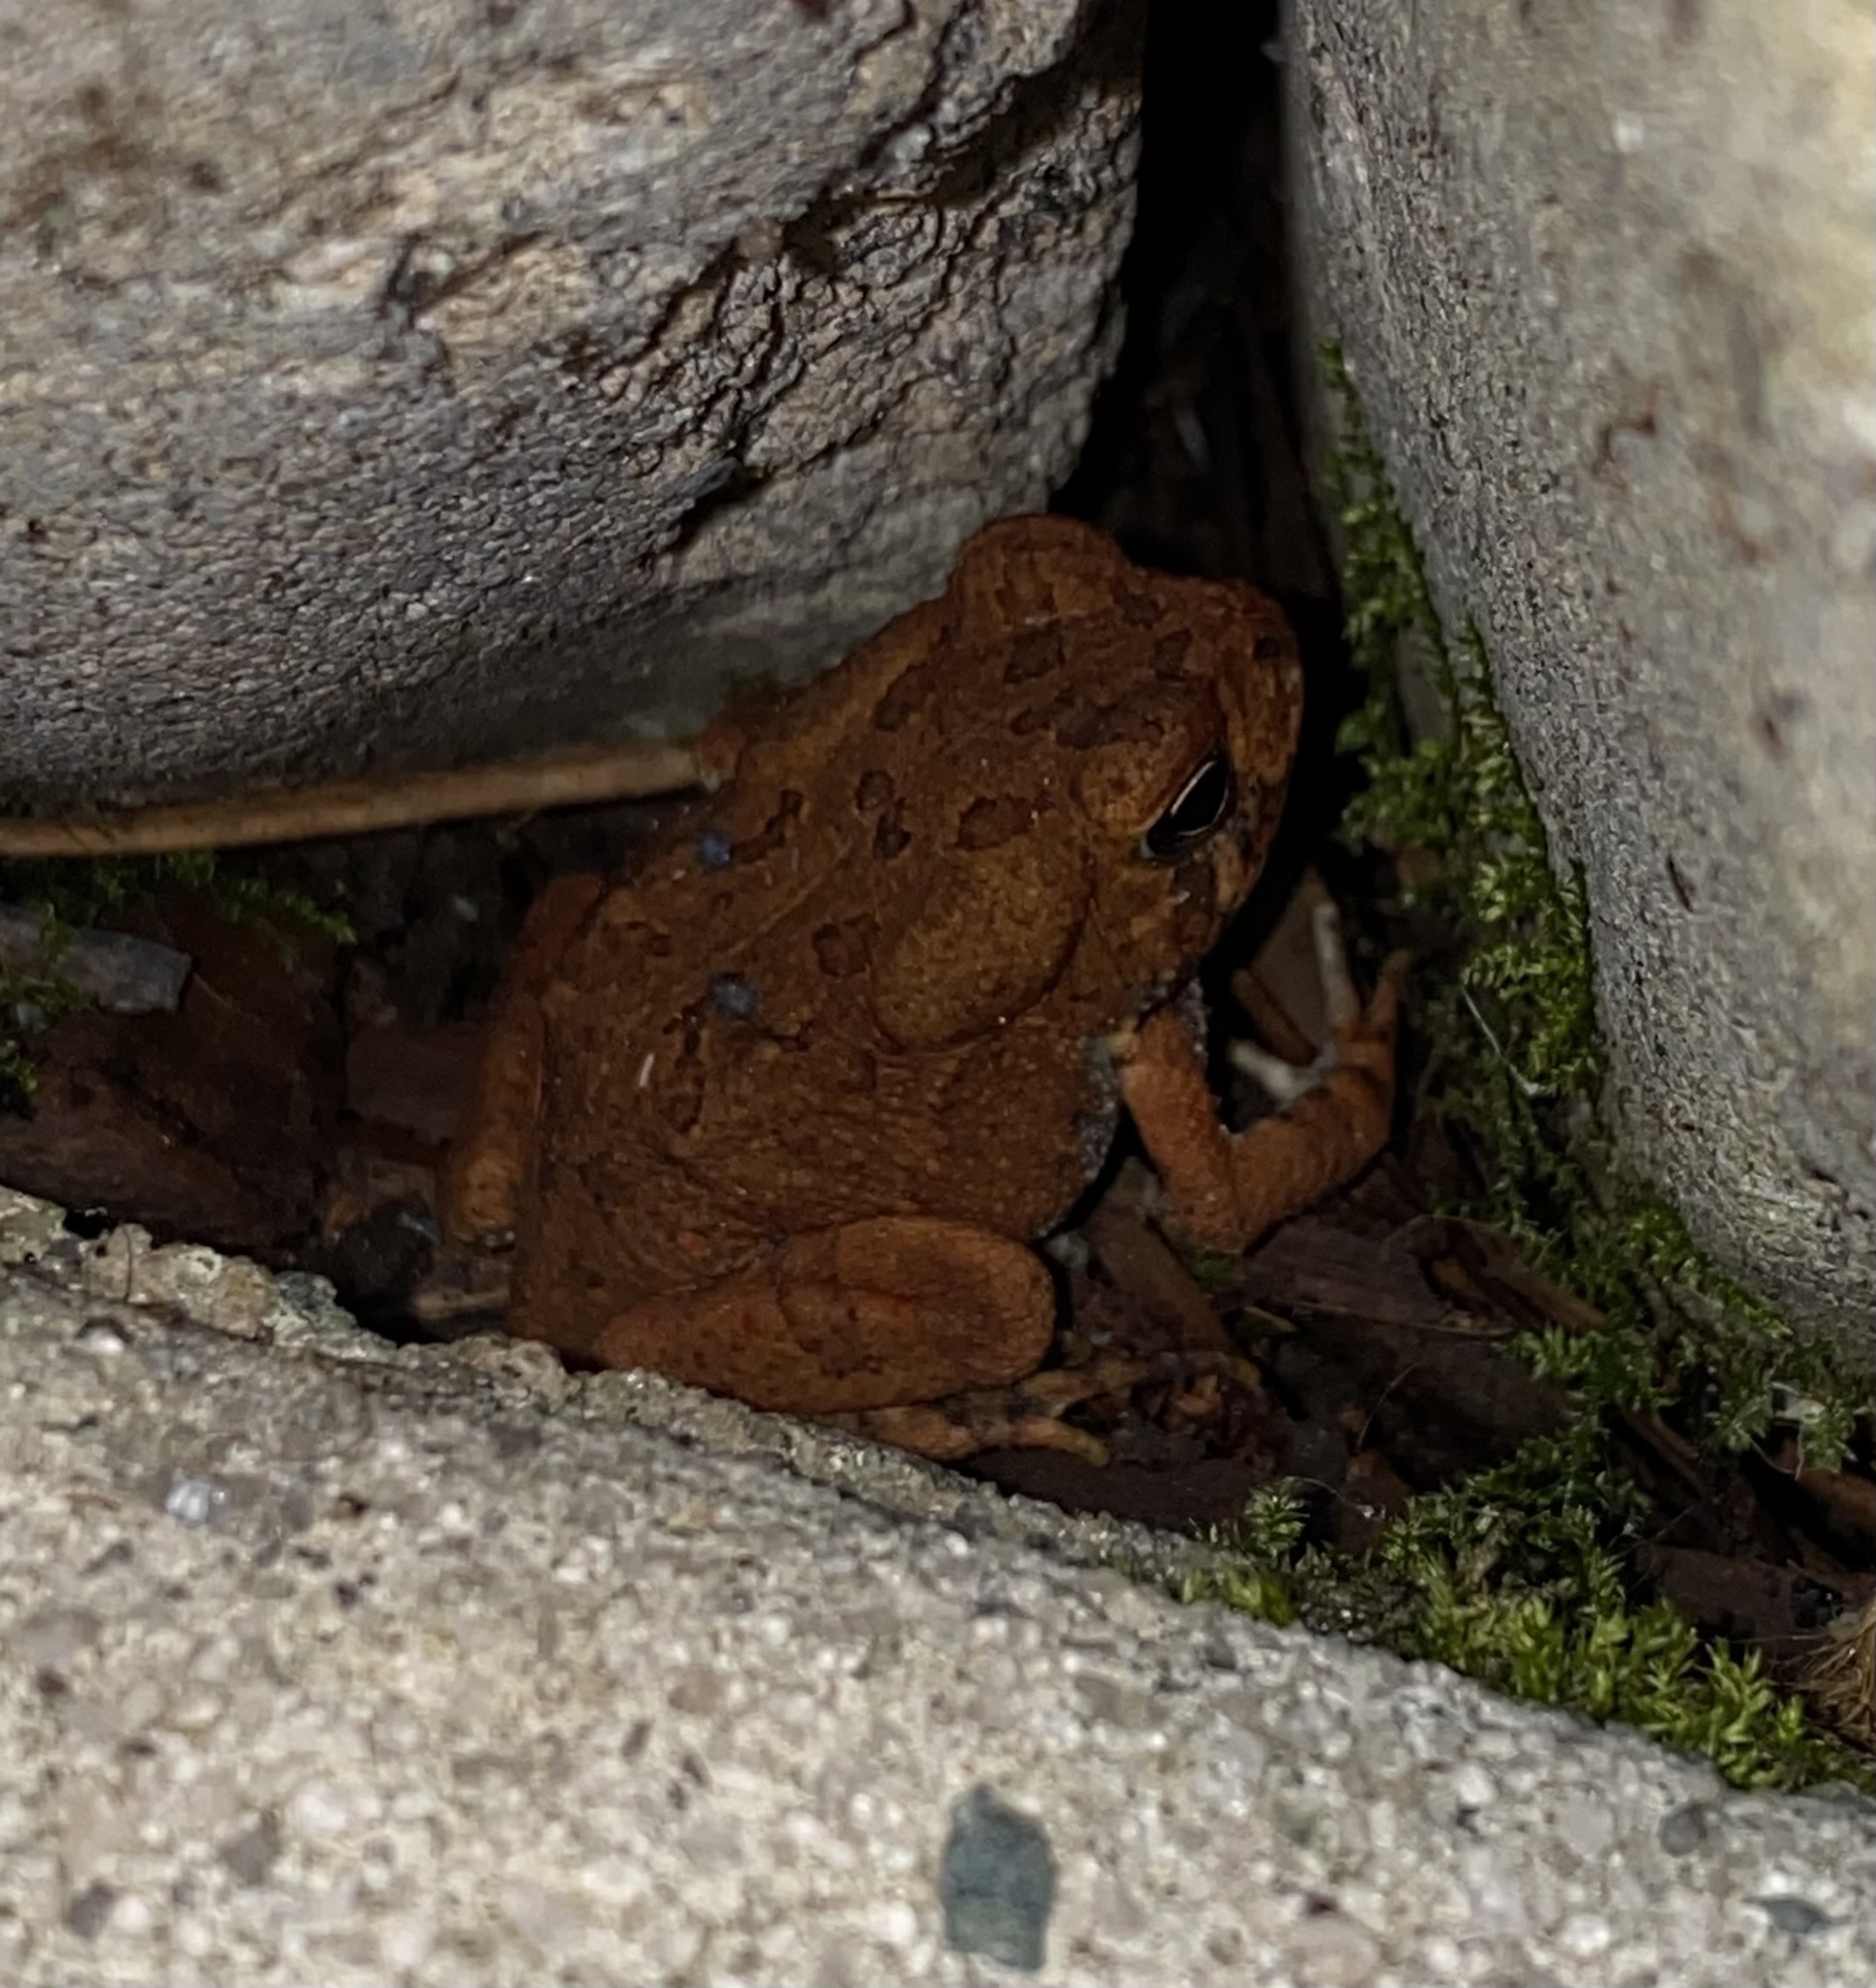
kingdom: Animalia
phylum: Chordata
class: Amphibia
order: Anura
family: Bufonidae
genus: Anaxyrus
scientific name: Anaxyrus fowleri
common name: Fowler's toad
